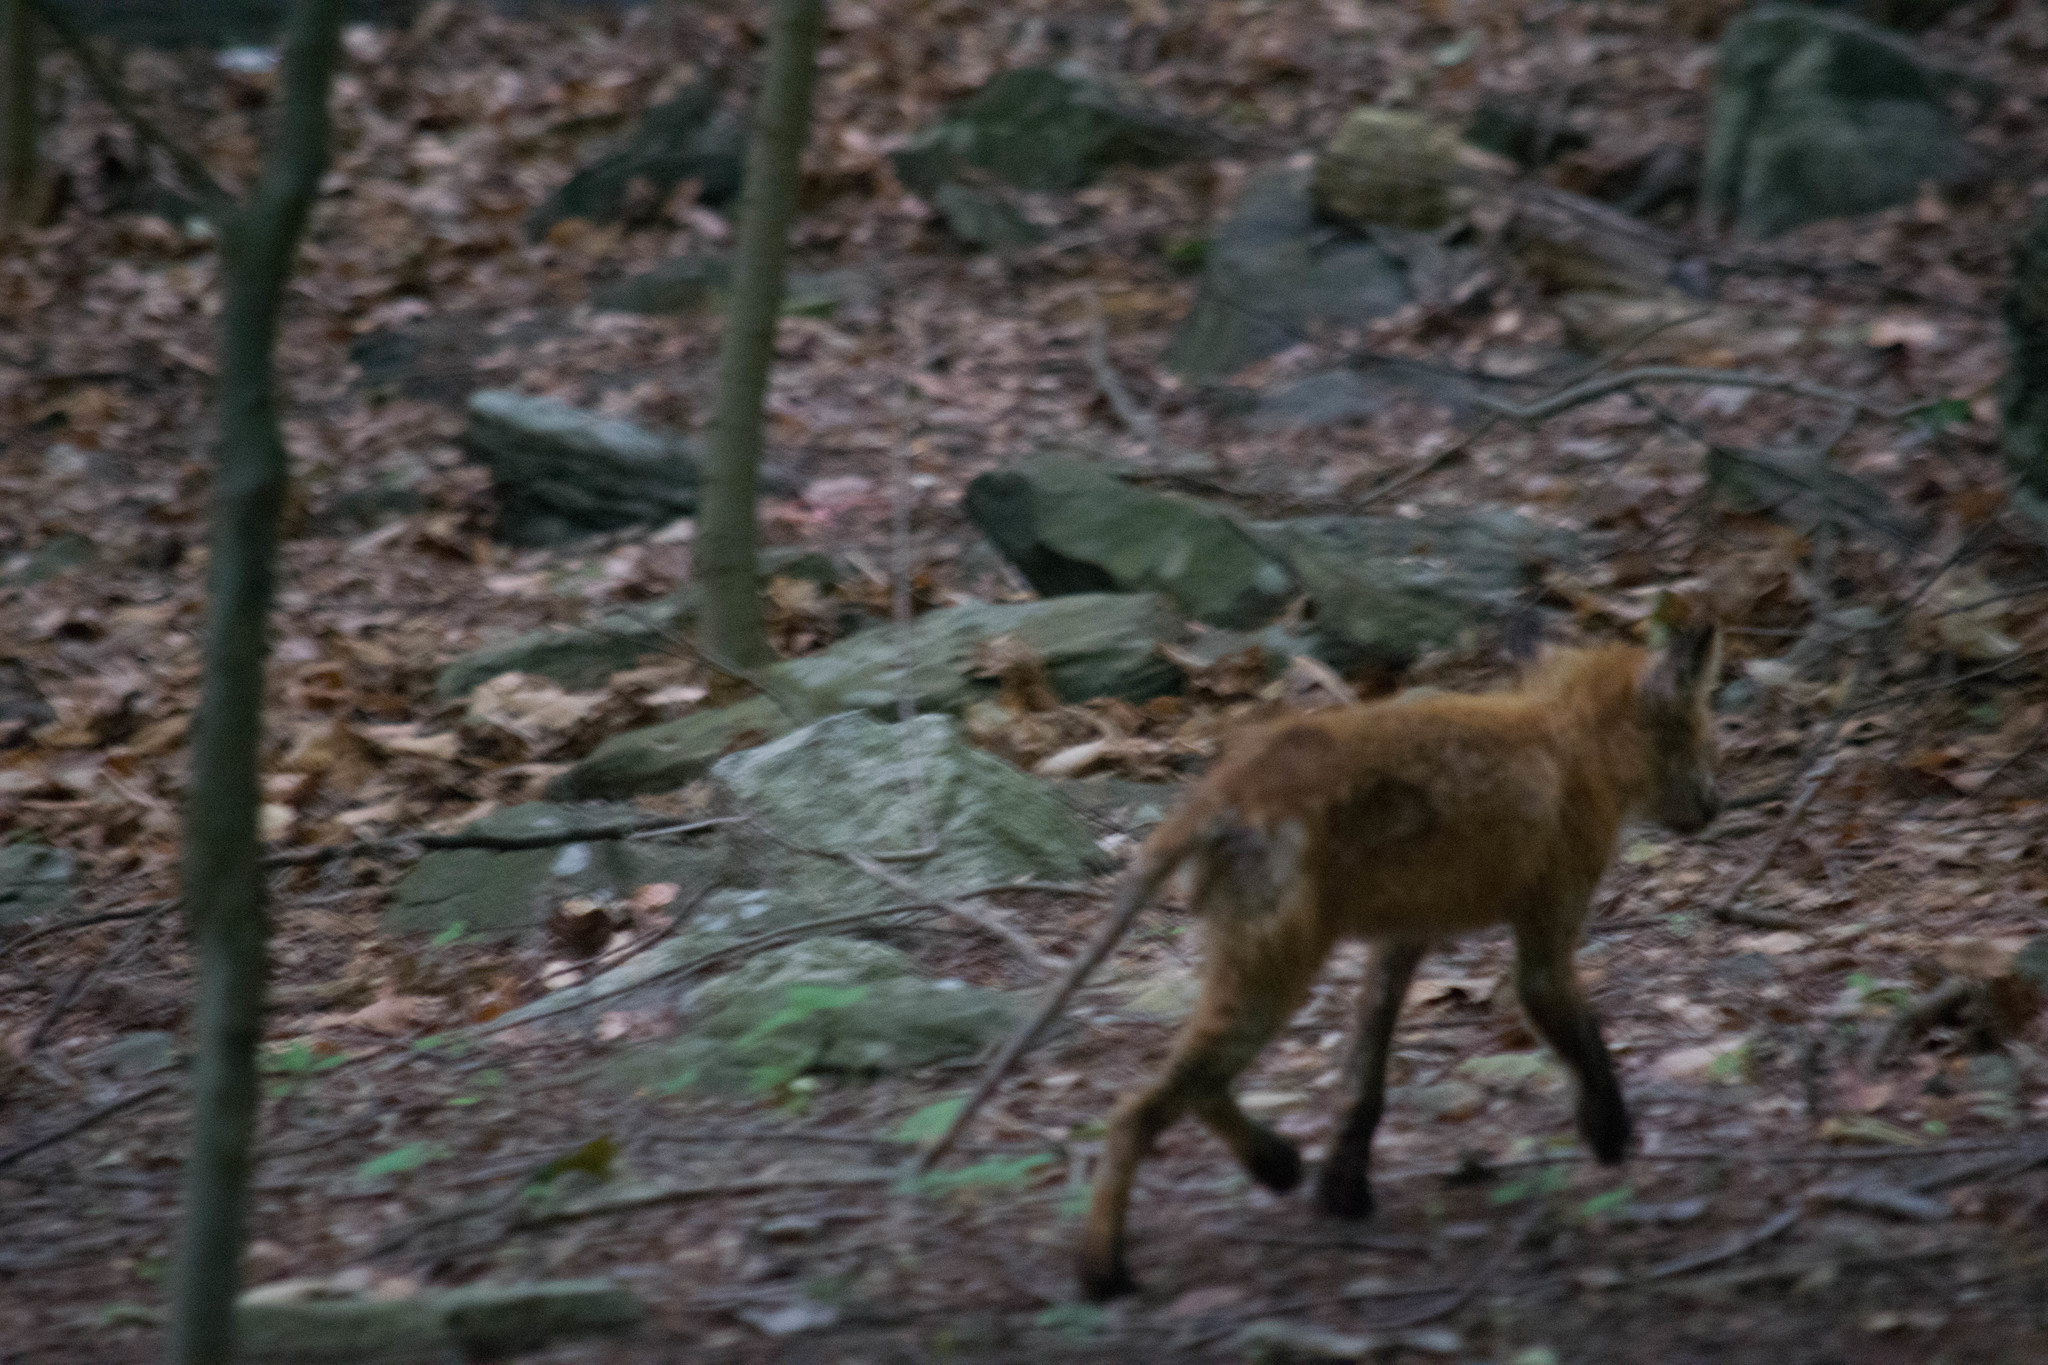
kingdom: Animalia
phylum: Chordata
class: Mammalia
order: Carnivora
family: Canidae
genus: Vulpes
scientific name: Vulpes vulpes
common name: Red fox
